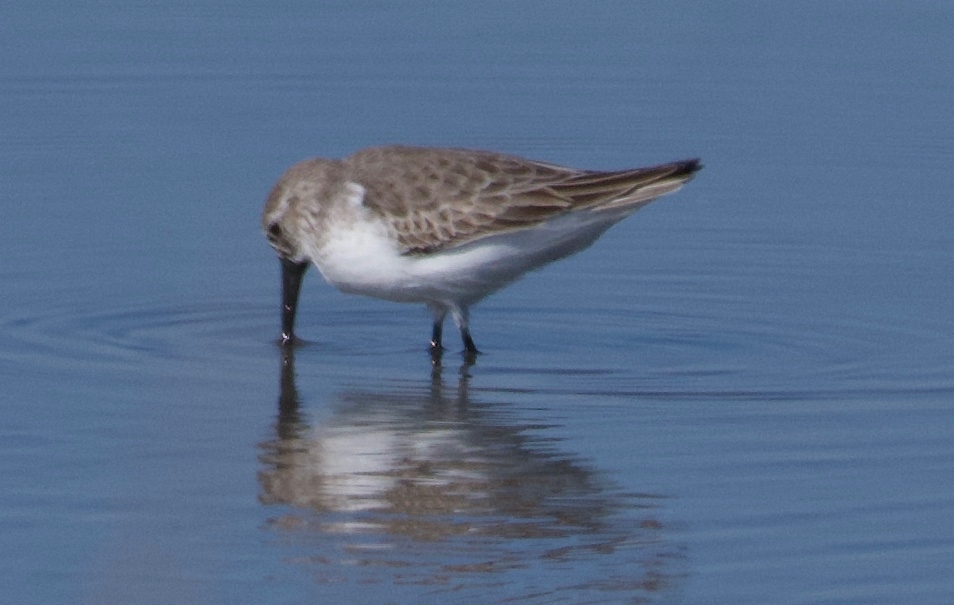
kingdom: Animalia
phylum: Chordata
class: Aves
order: Charadriiformes
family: Scolopacidae
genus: Calidris
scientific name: Calidris mauri
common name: Western sandpiper
